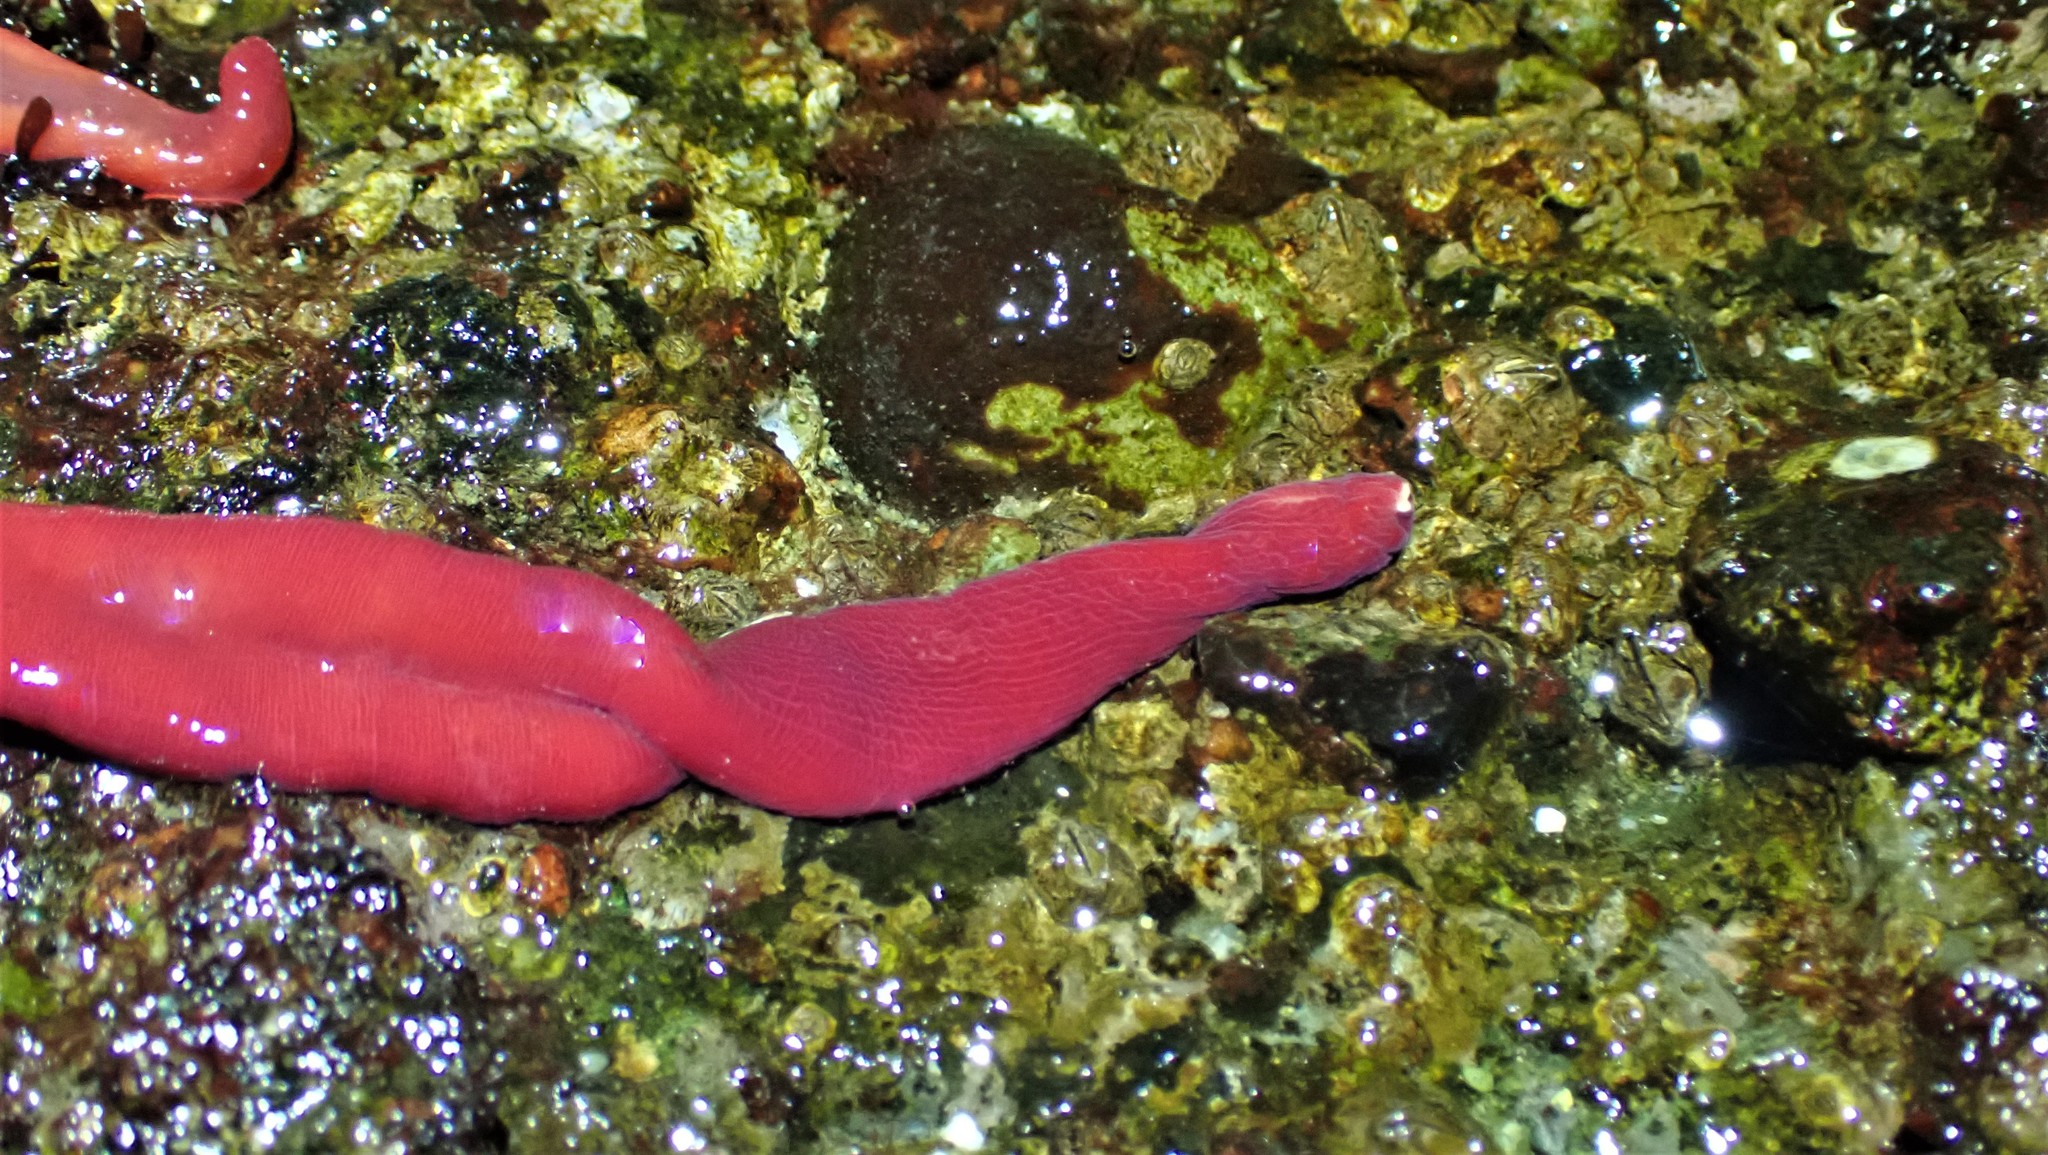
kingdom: Animalia
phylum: Nemertea
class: Pilidiophora
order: Heteronemertea
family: Lineidae
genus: Kulikovia
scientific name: Kulikovia montgomeryi
